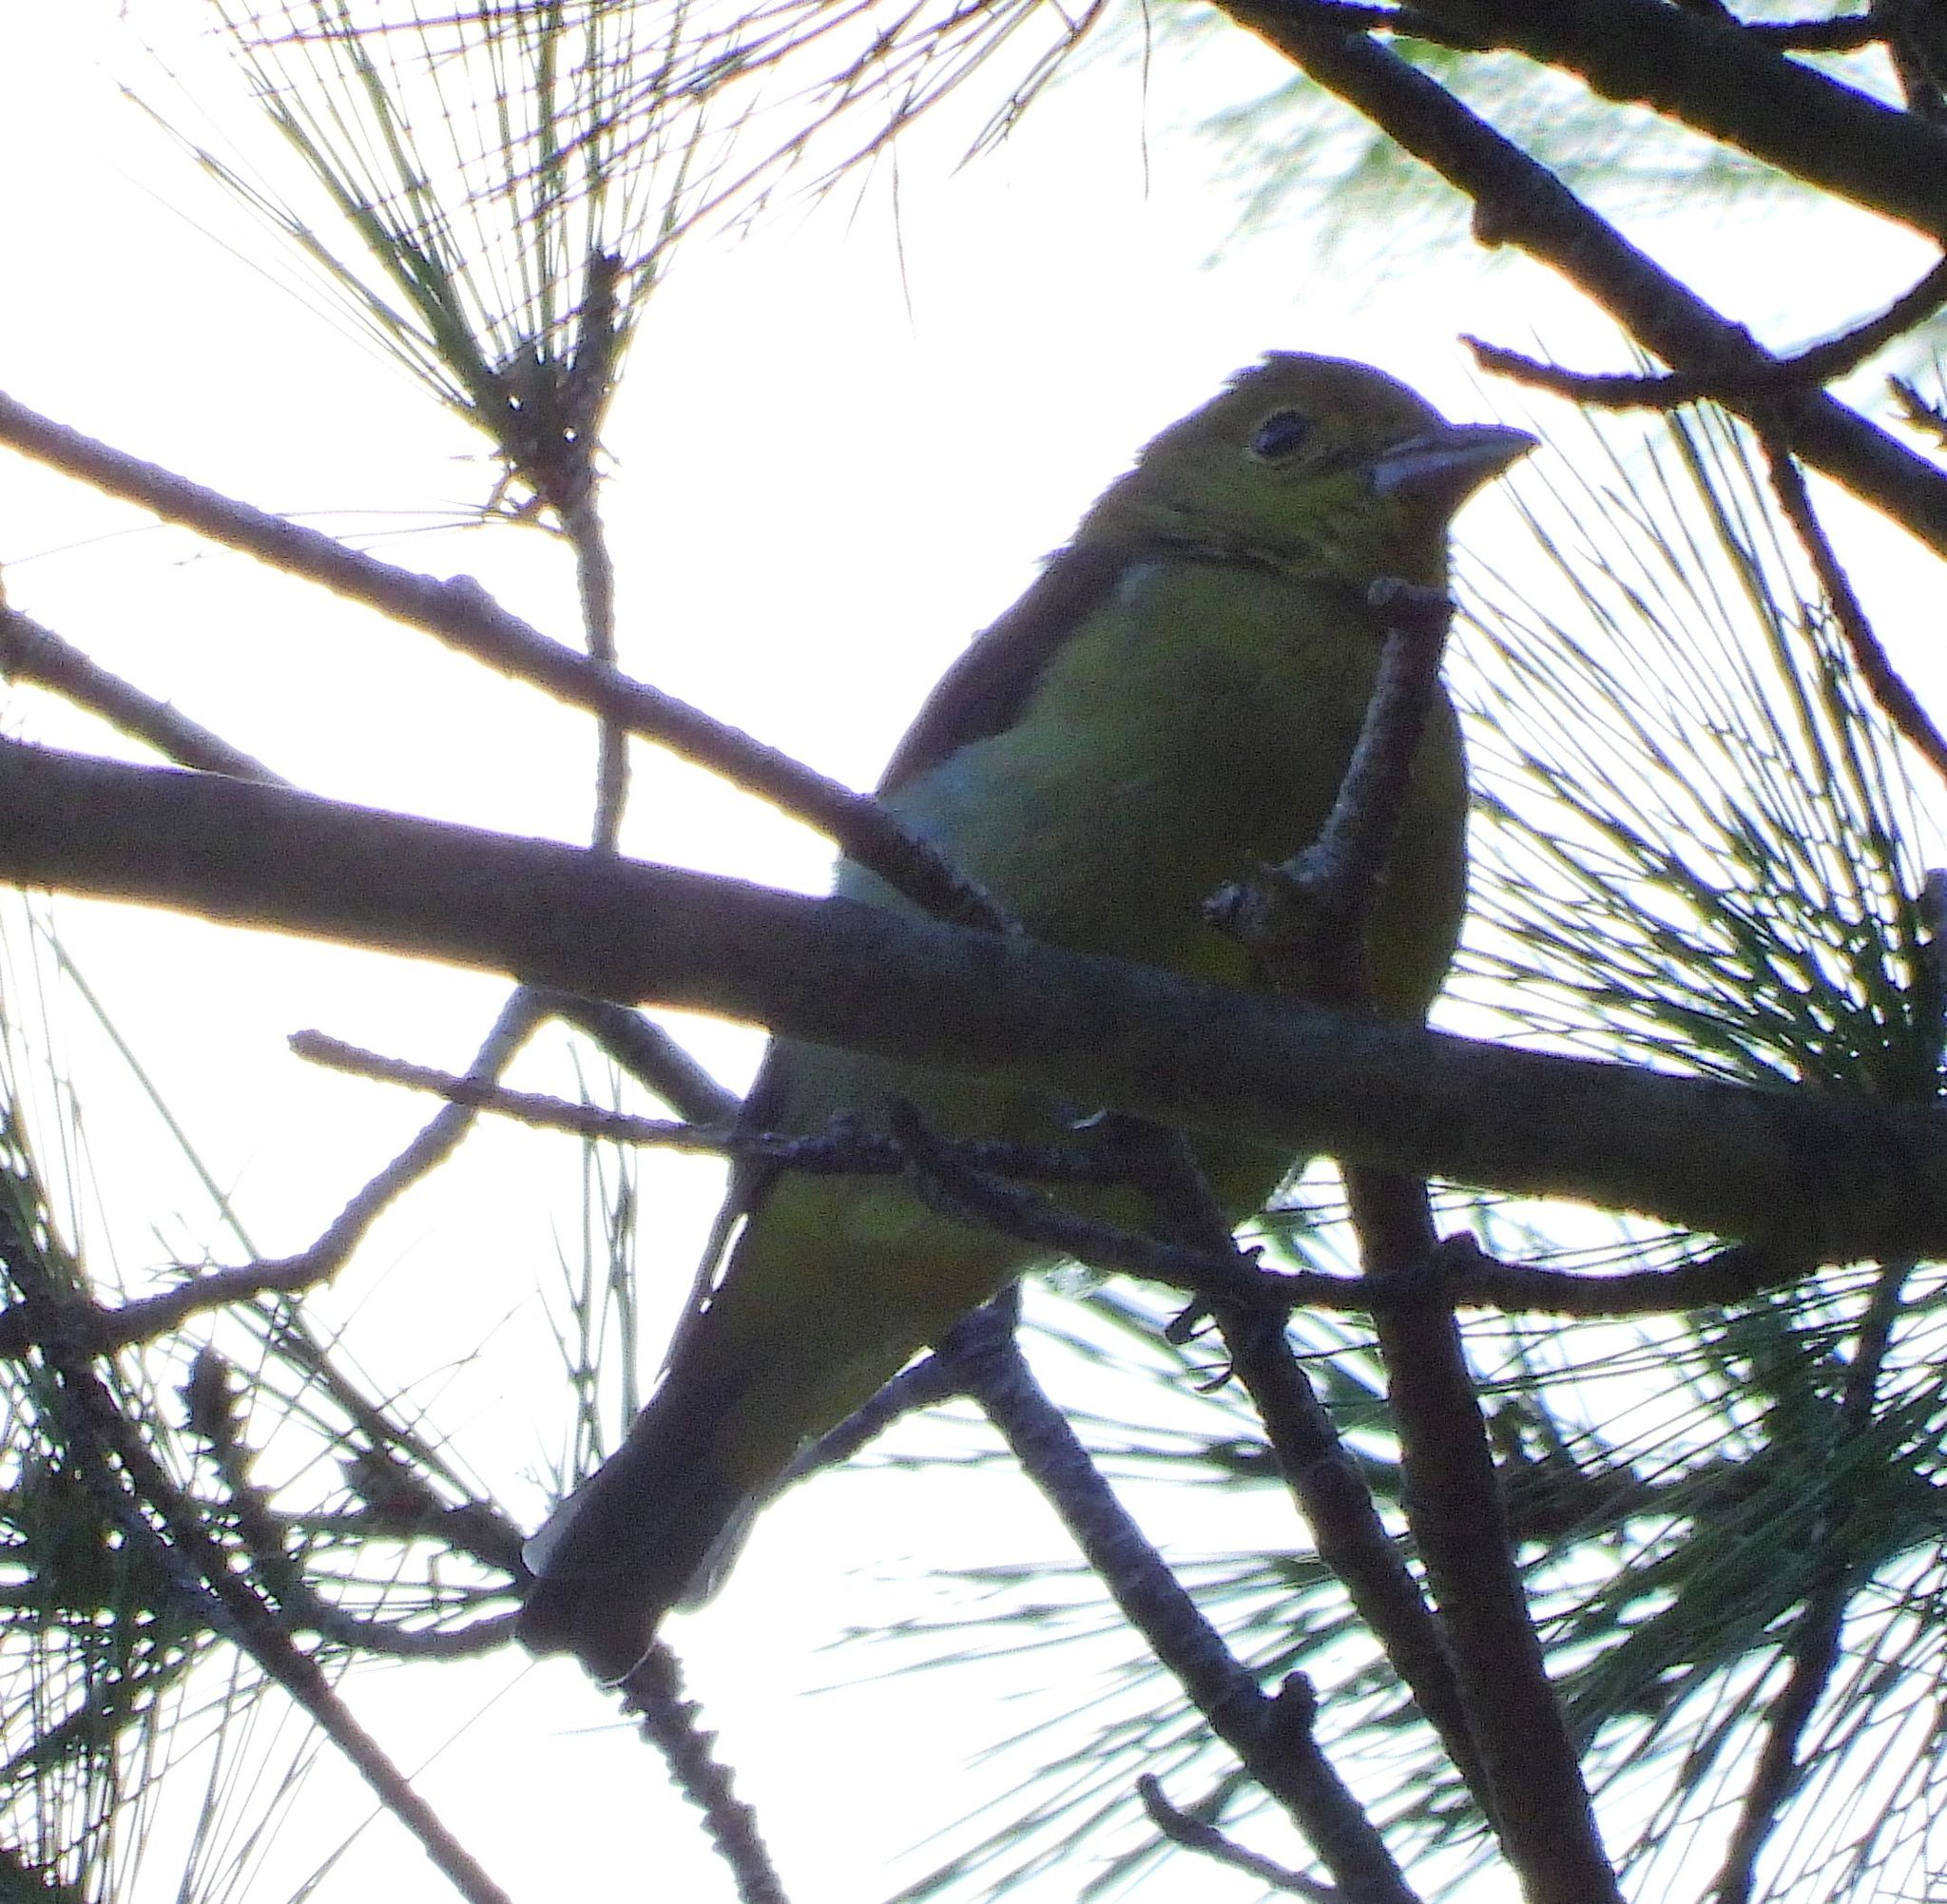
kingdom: Animalia
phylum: Chordata
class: Aves
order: Passeriformes
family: Cardinalidae
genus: Piranga
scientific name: Piranga olivacea
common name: Scarlet tanager
